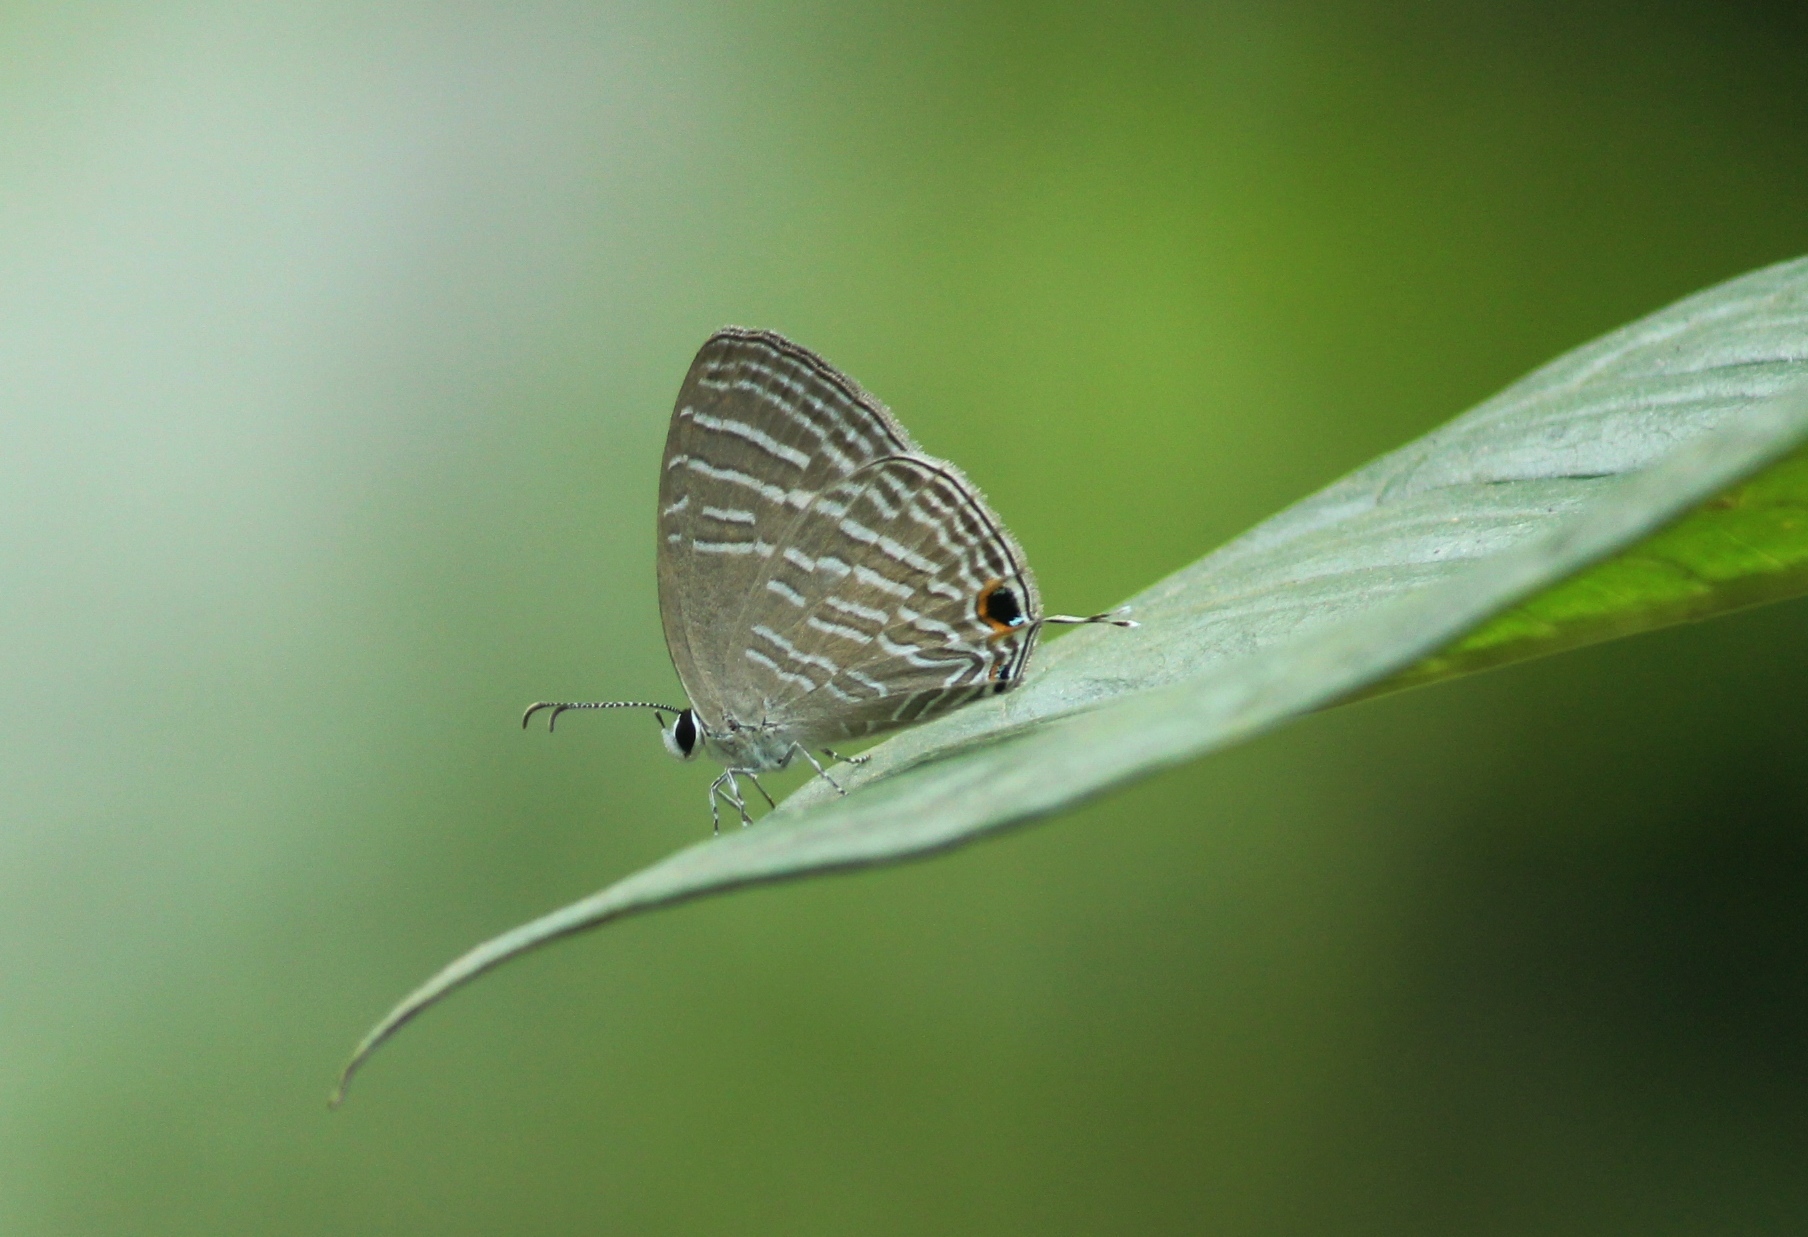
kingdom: Animalia
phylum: Arthropoda
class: Insecta
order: Lepidoptera
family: Lycaenidae
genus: Jamides
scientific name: Jamides celeno
